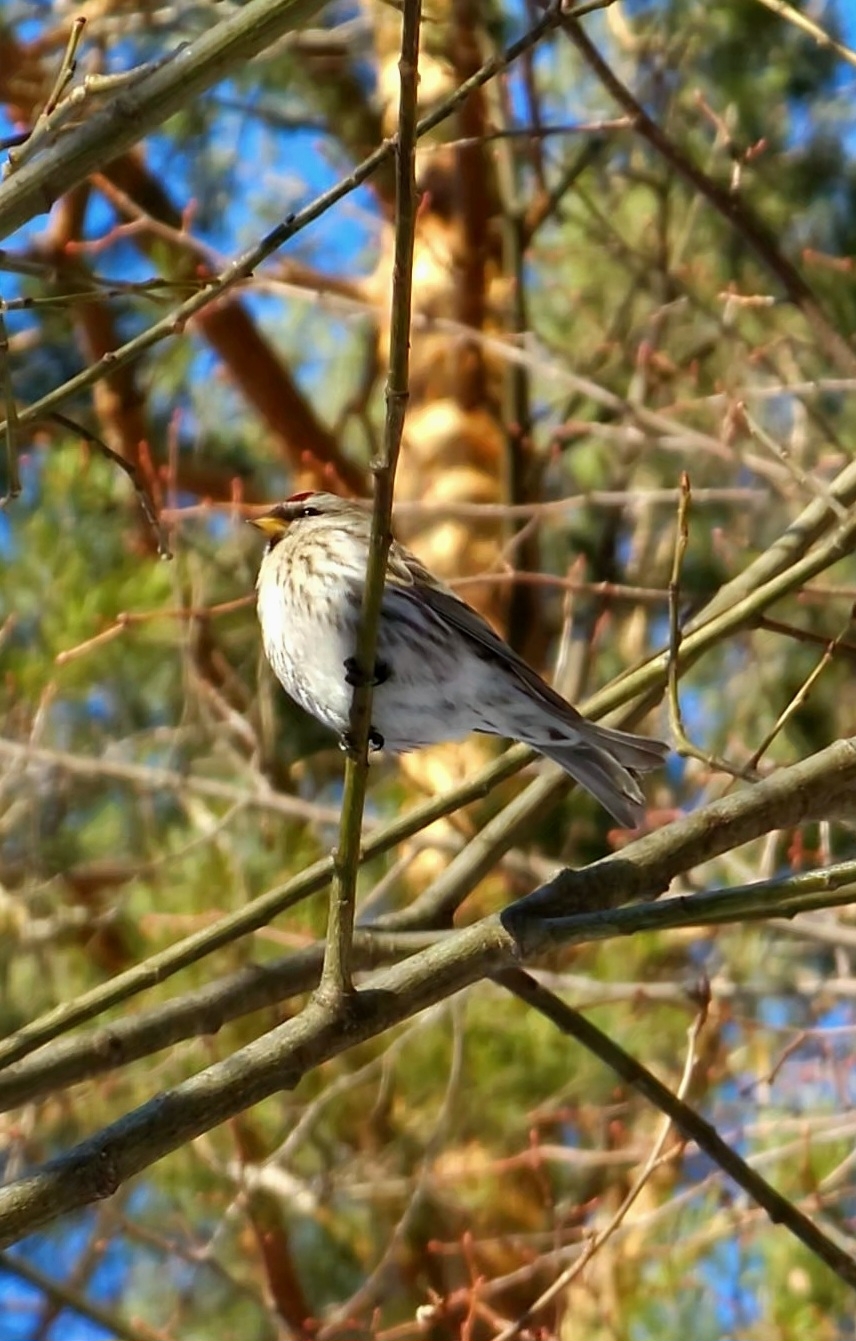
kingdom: Animalia
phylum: Chordata
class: Aves
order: Passeriformes
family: Fringillidae
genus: Acanthis
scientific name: Acanthis flammea
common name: Common redpoll
